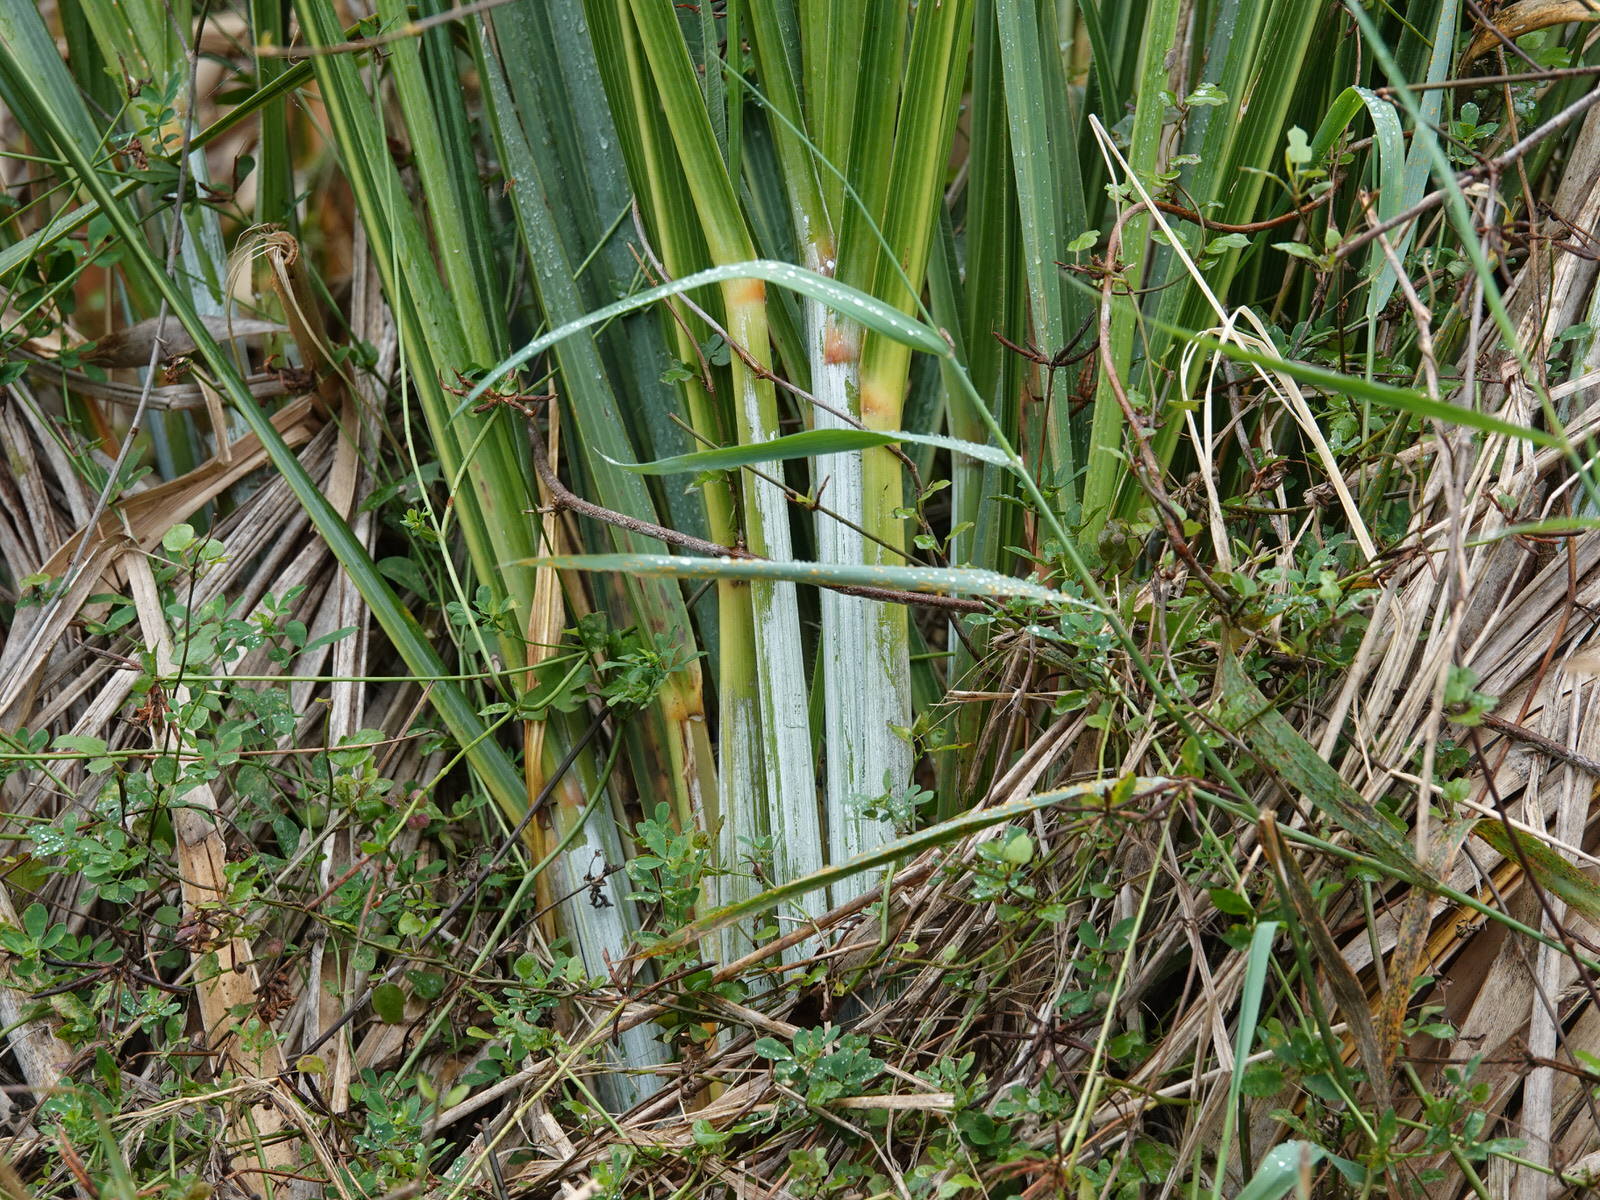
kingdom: Plantae
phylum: Tracheophyta
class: Liliopsida
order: Poales
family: Poaceae
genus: Austroderia
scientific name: Austroderia fulvida
